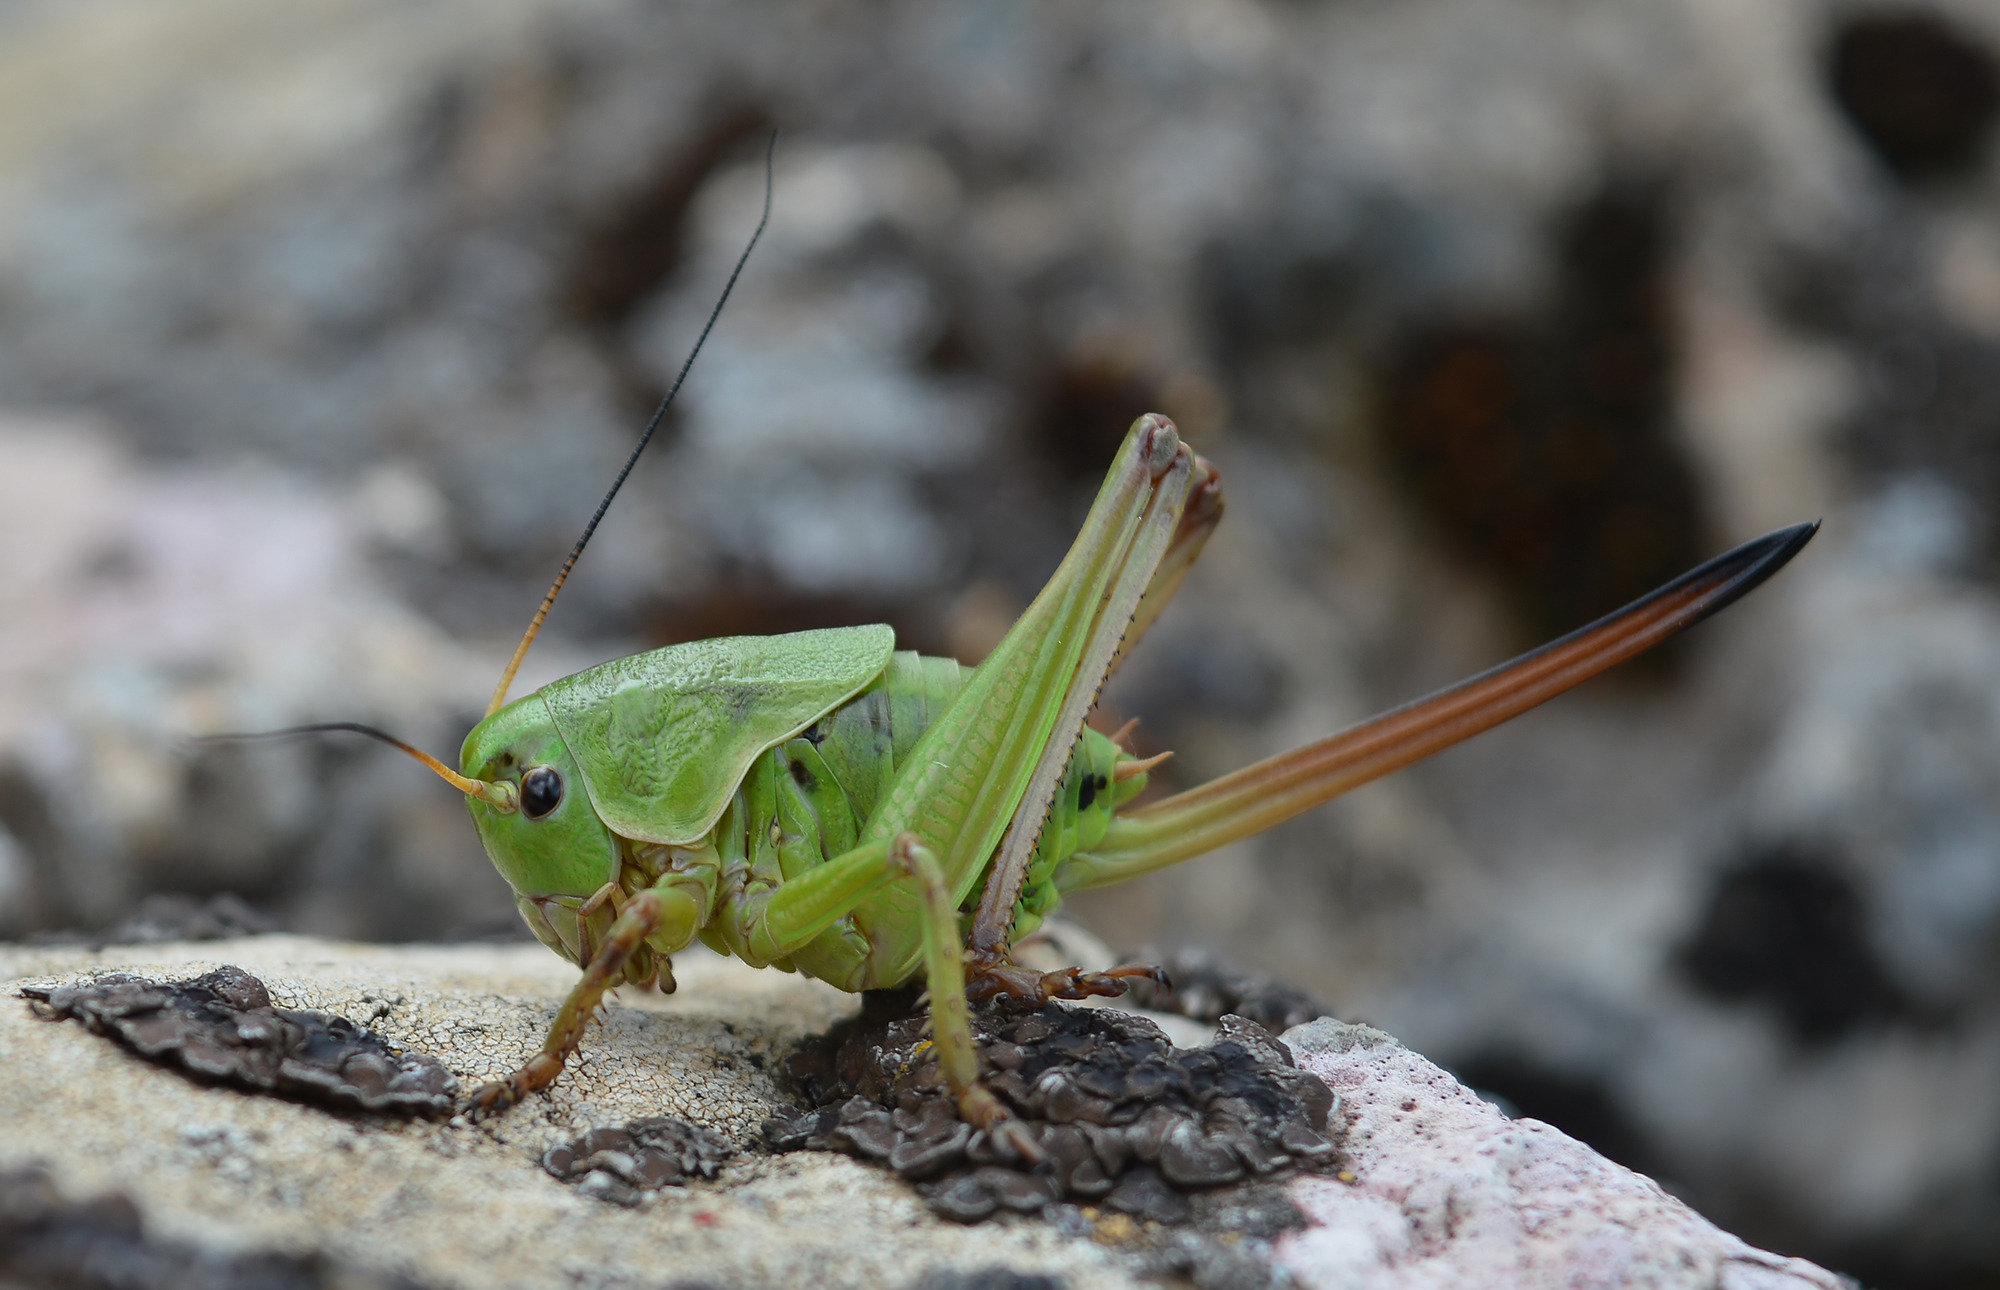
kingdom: Animalia
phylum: Arthropoda
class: Insecta
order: Orthoptera
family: Tettigoniidae
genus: Psorodonotus
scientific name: Psorodonotus macedonicus
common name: Macedonian walking bush-cricket
